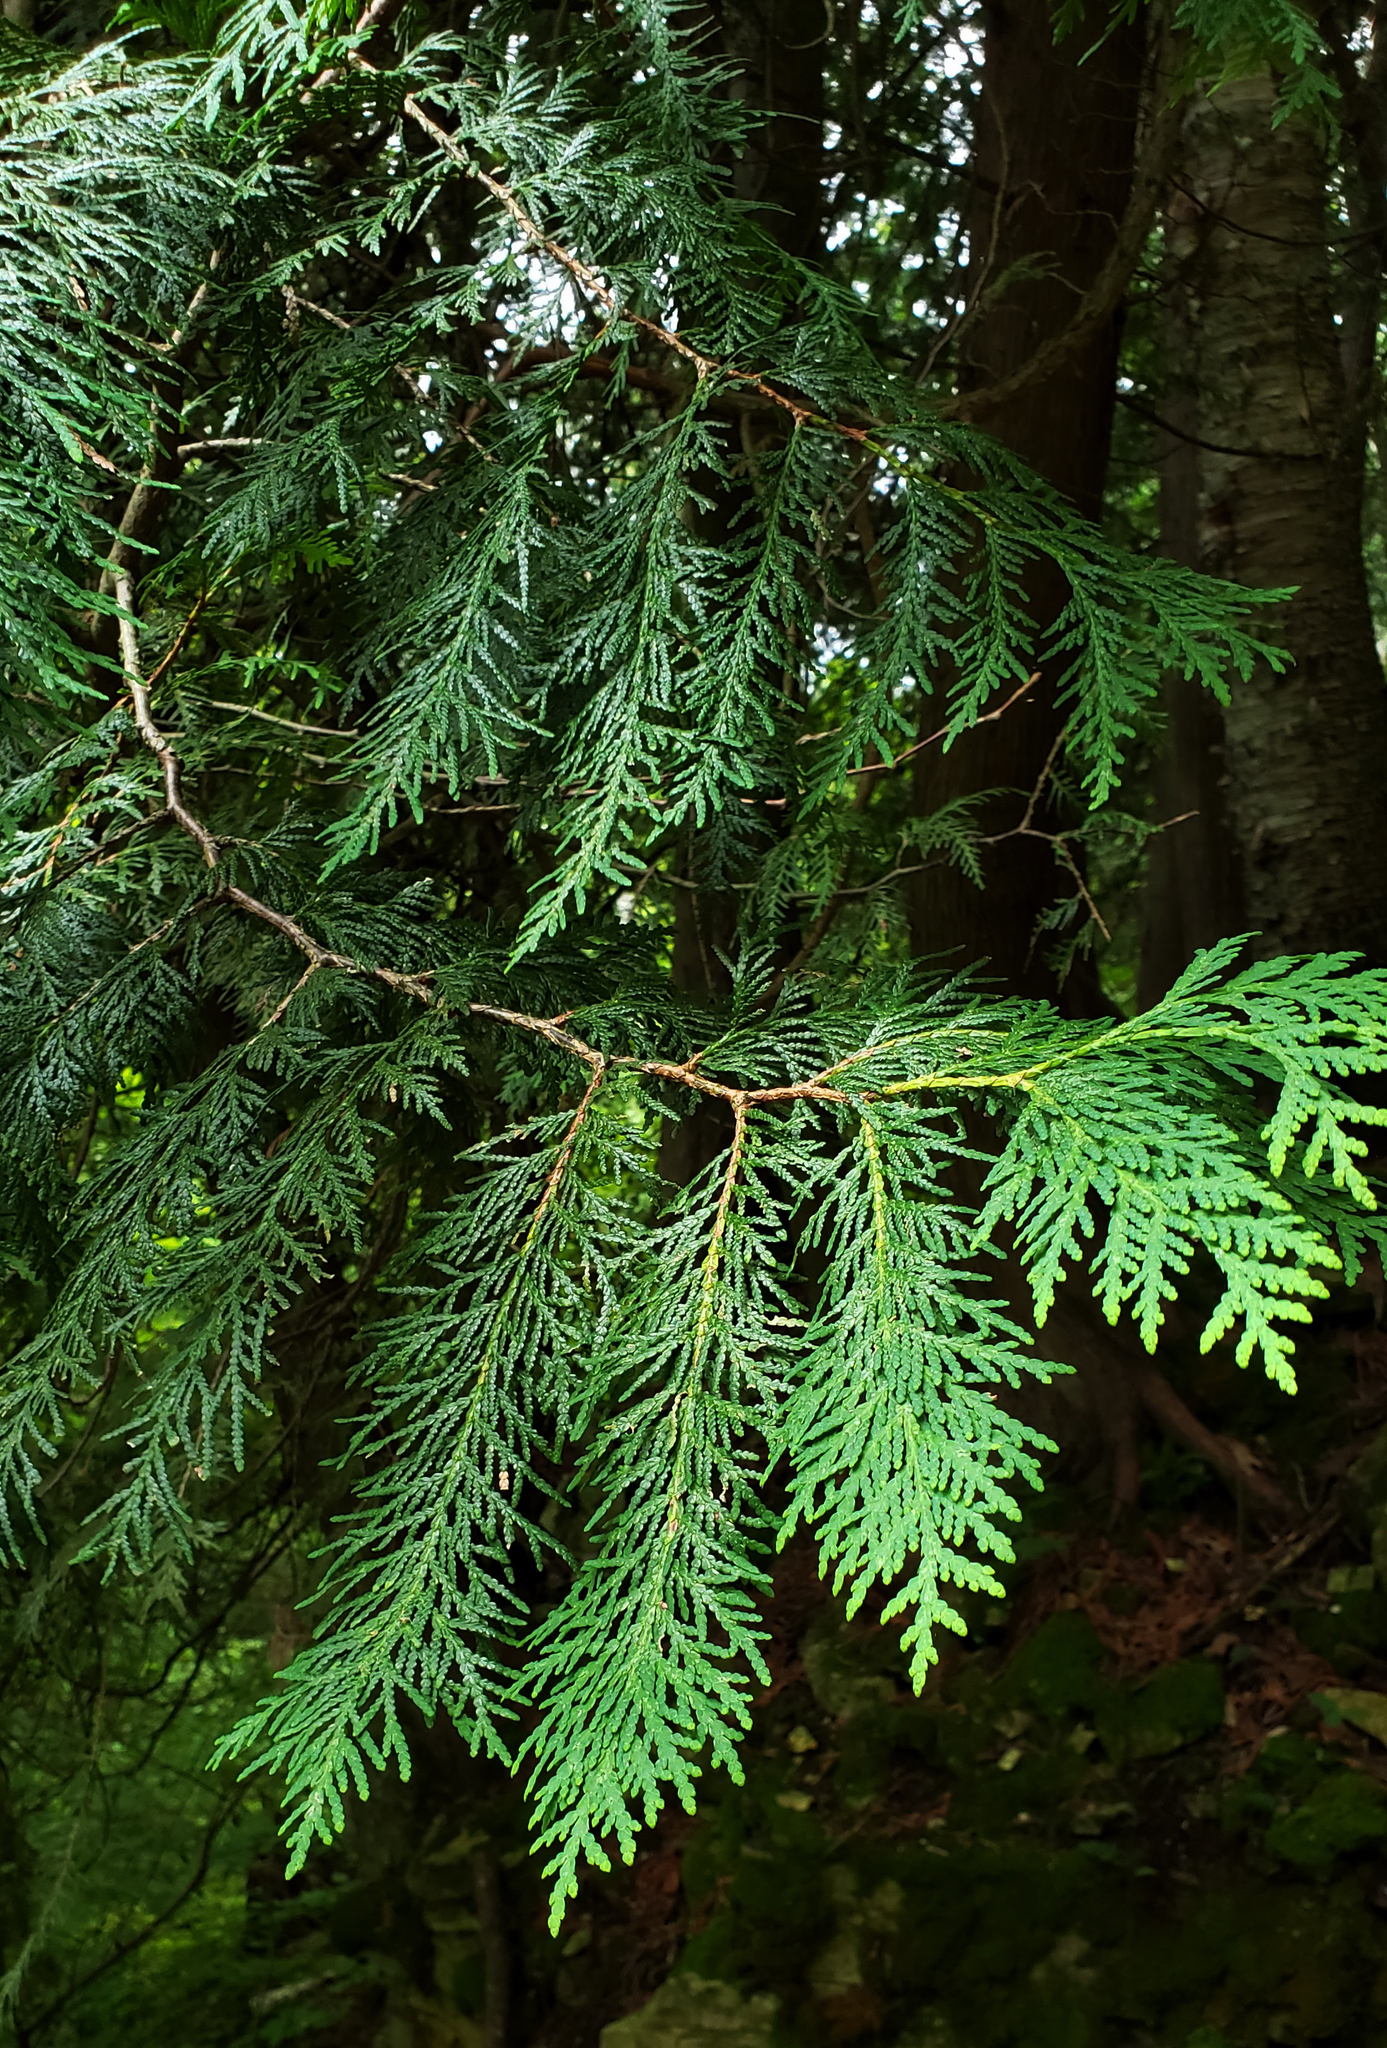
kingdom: Plantae
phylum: Tracheophyta
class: Pinopsida
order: Pinales
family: Cupressaceae
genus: Thuja
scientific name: Thuja occidentalis
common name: Northern white-cedar
